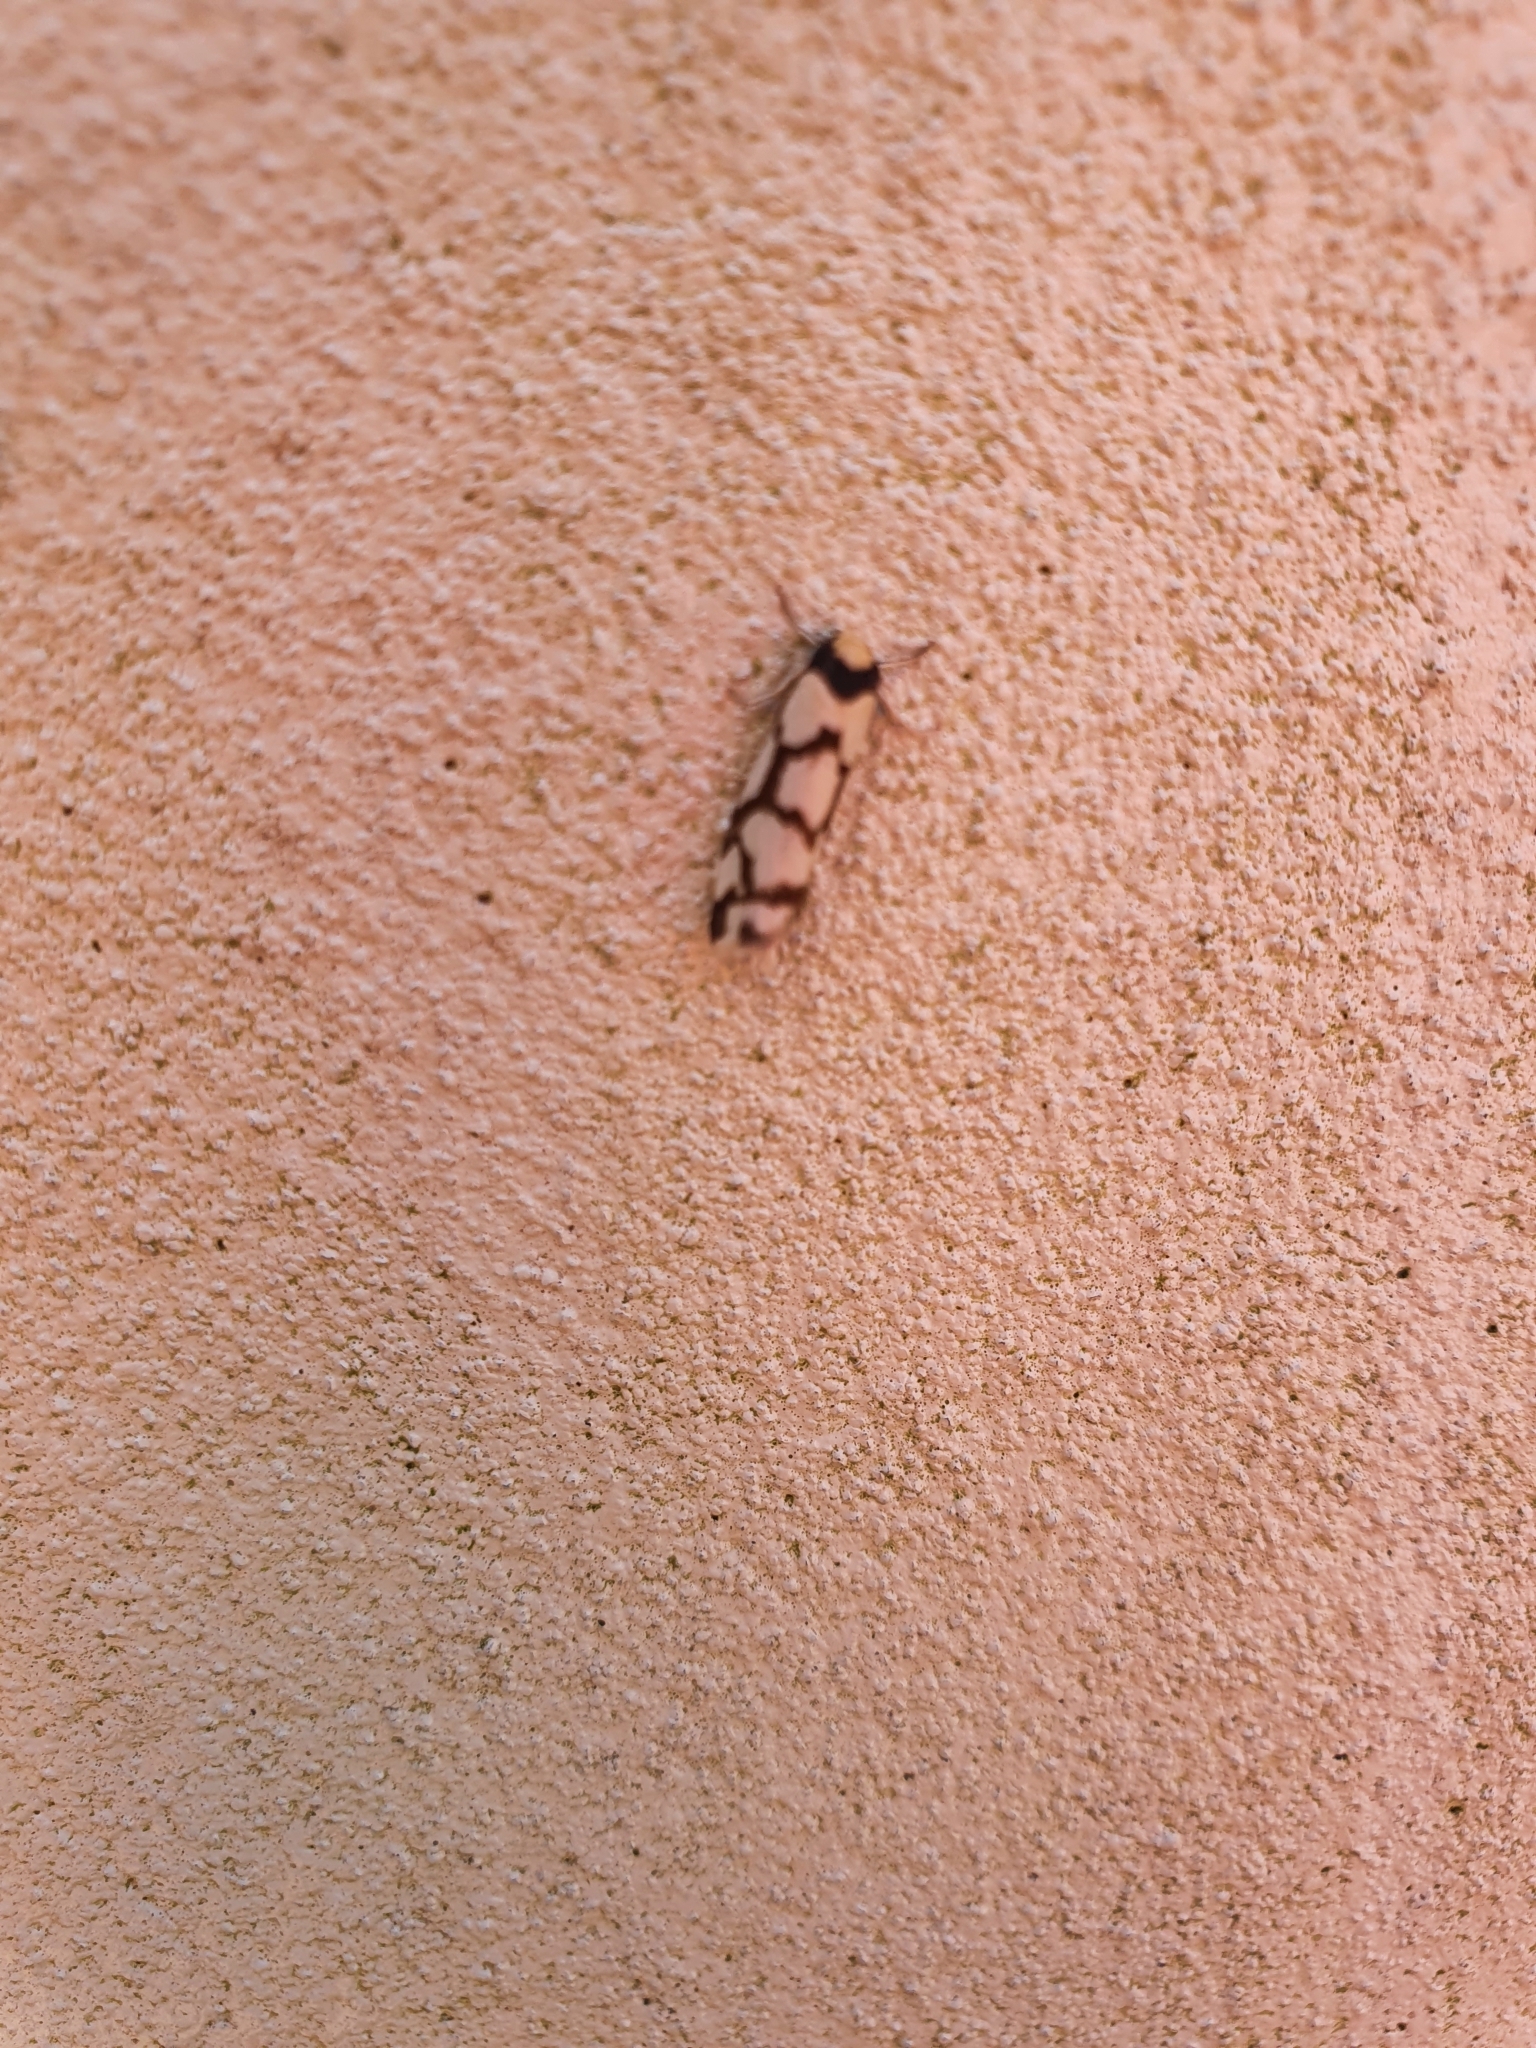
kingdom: Animalia
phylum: Arthropoda
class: Insecta
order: Lepidoptera
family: Erebidae
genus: Scaptesyle
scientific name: Scaptesyle dichotoma
